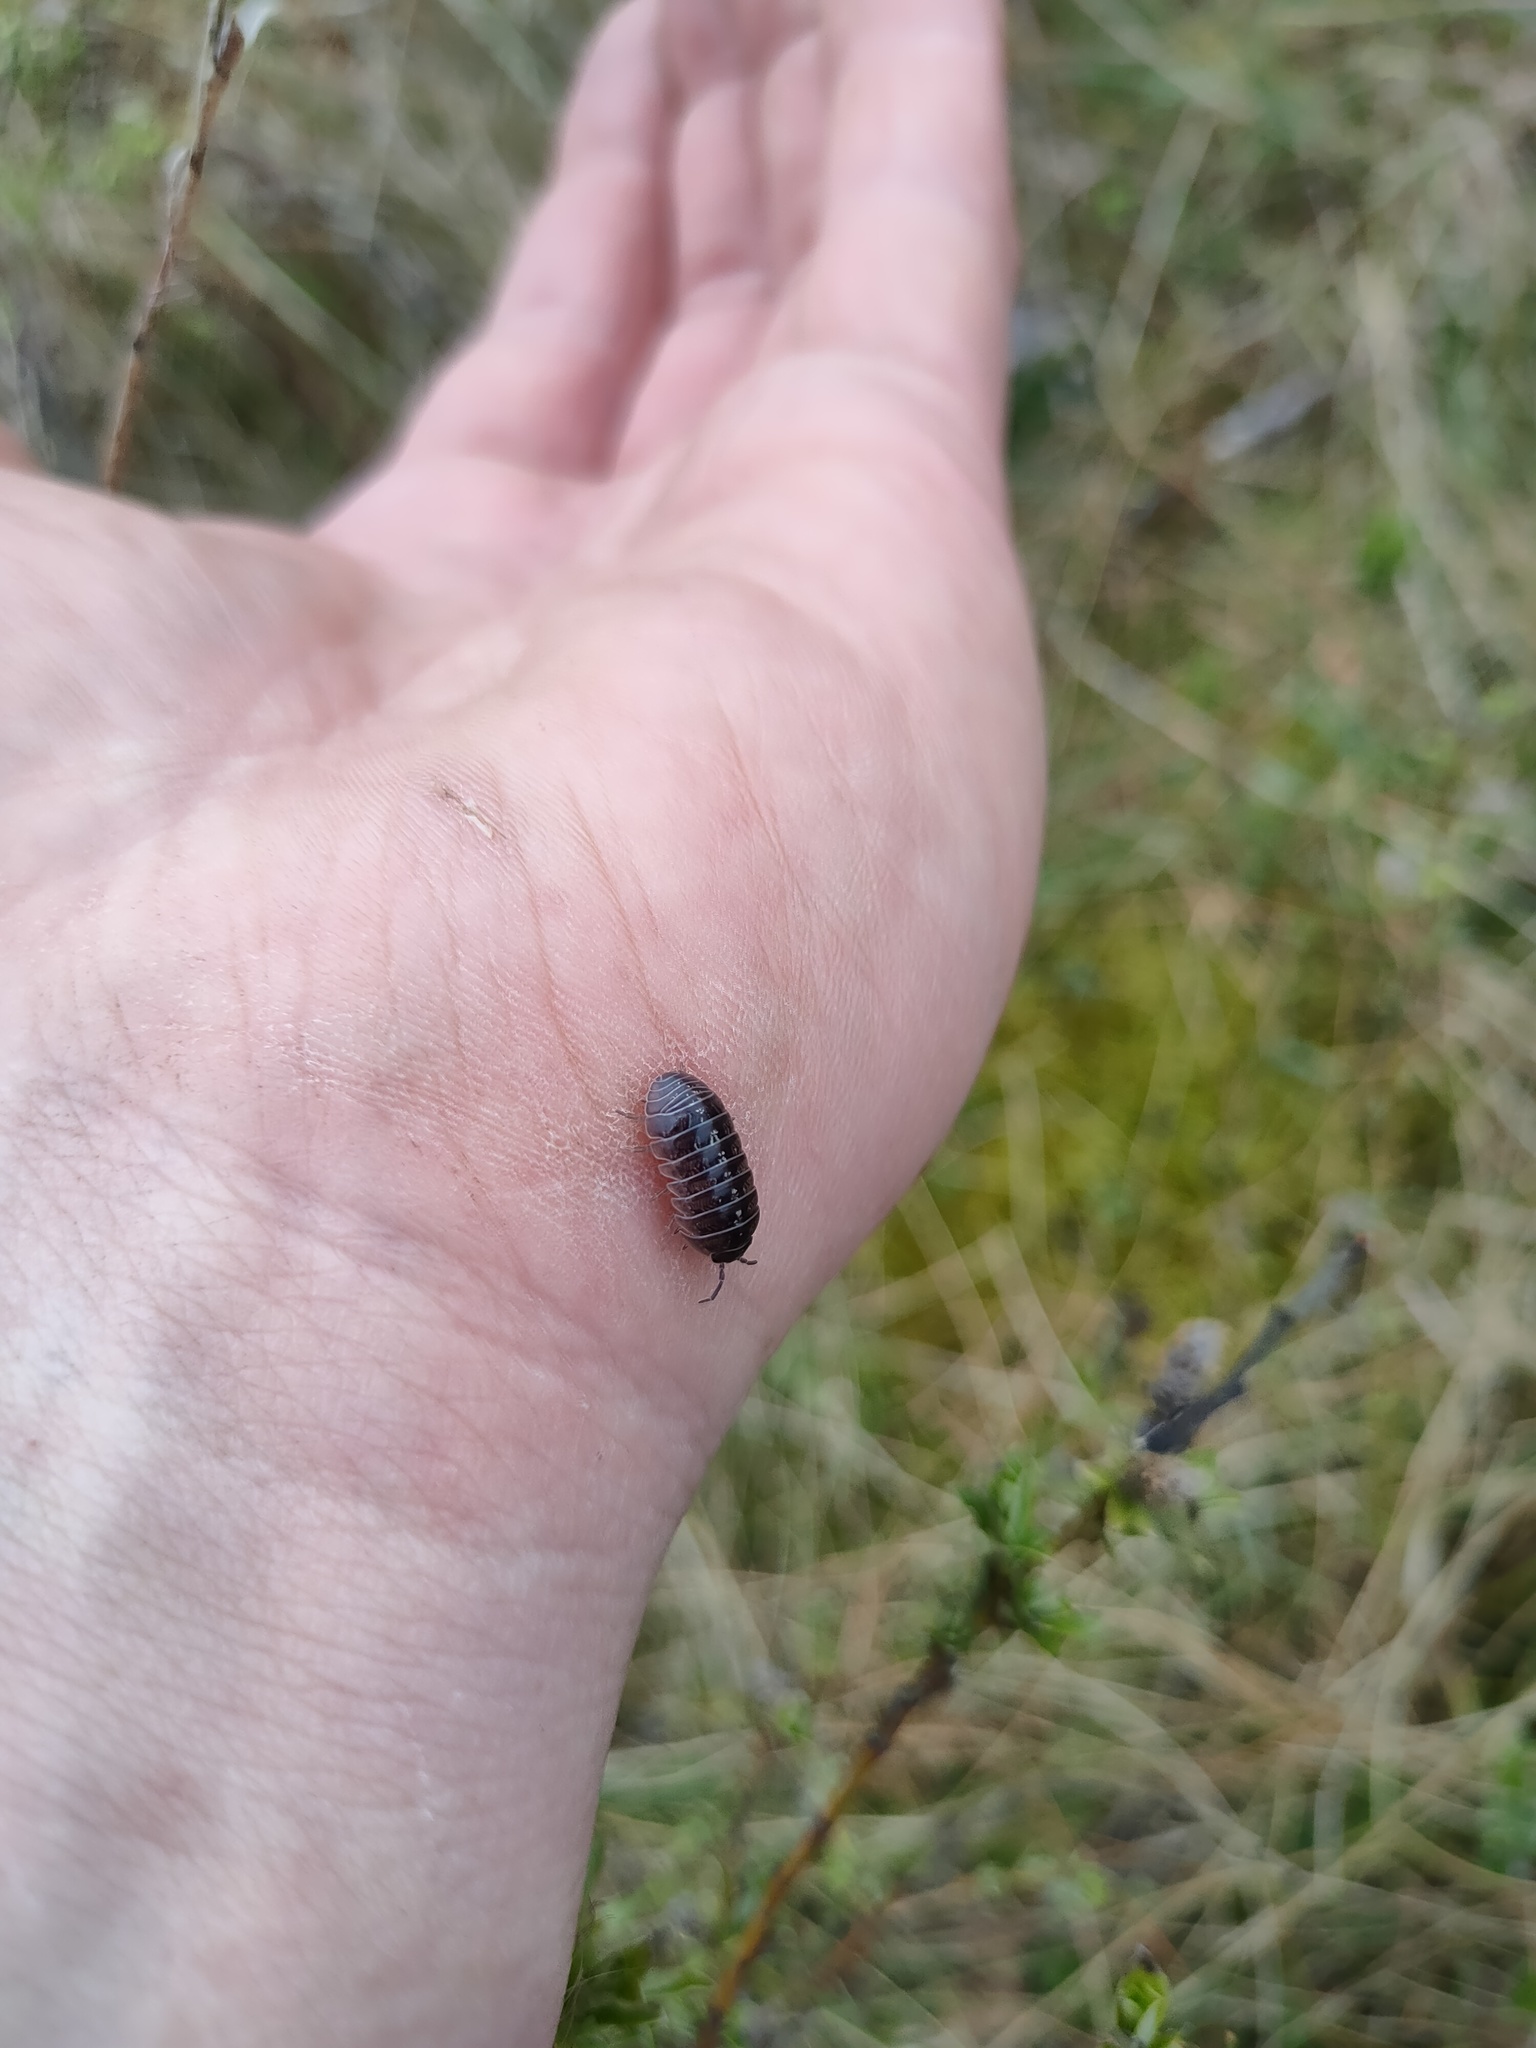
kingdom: Animalia
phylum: Arthropoda
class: Malacostraca
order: Isopoda
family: Armadillidiidae
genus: Armadillidium
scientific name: Armadillidium vulgare
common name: Common pill woodlouse
